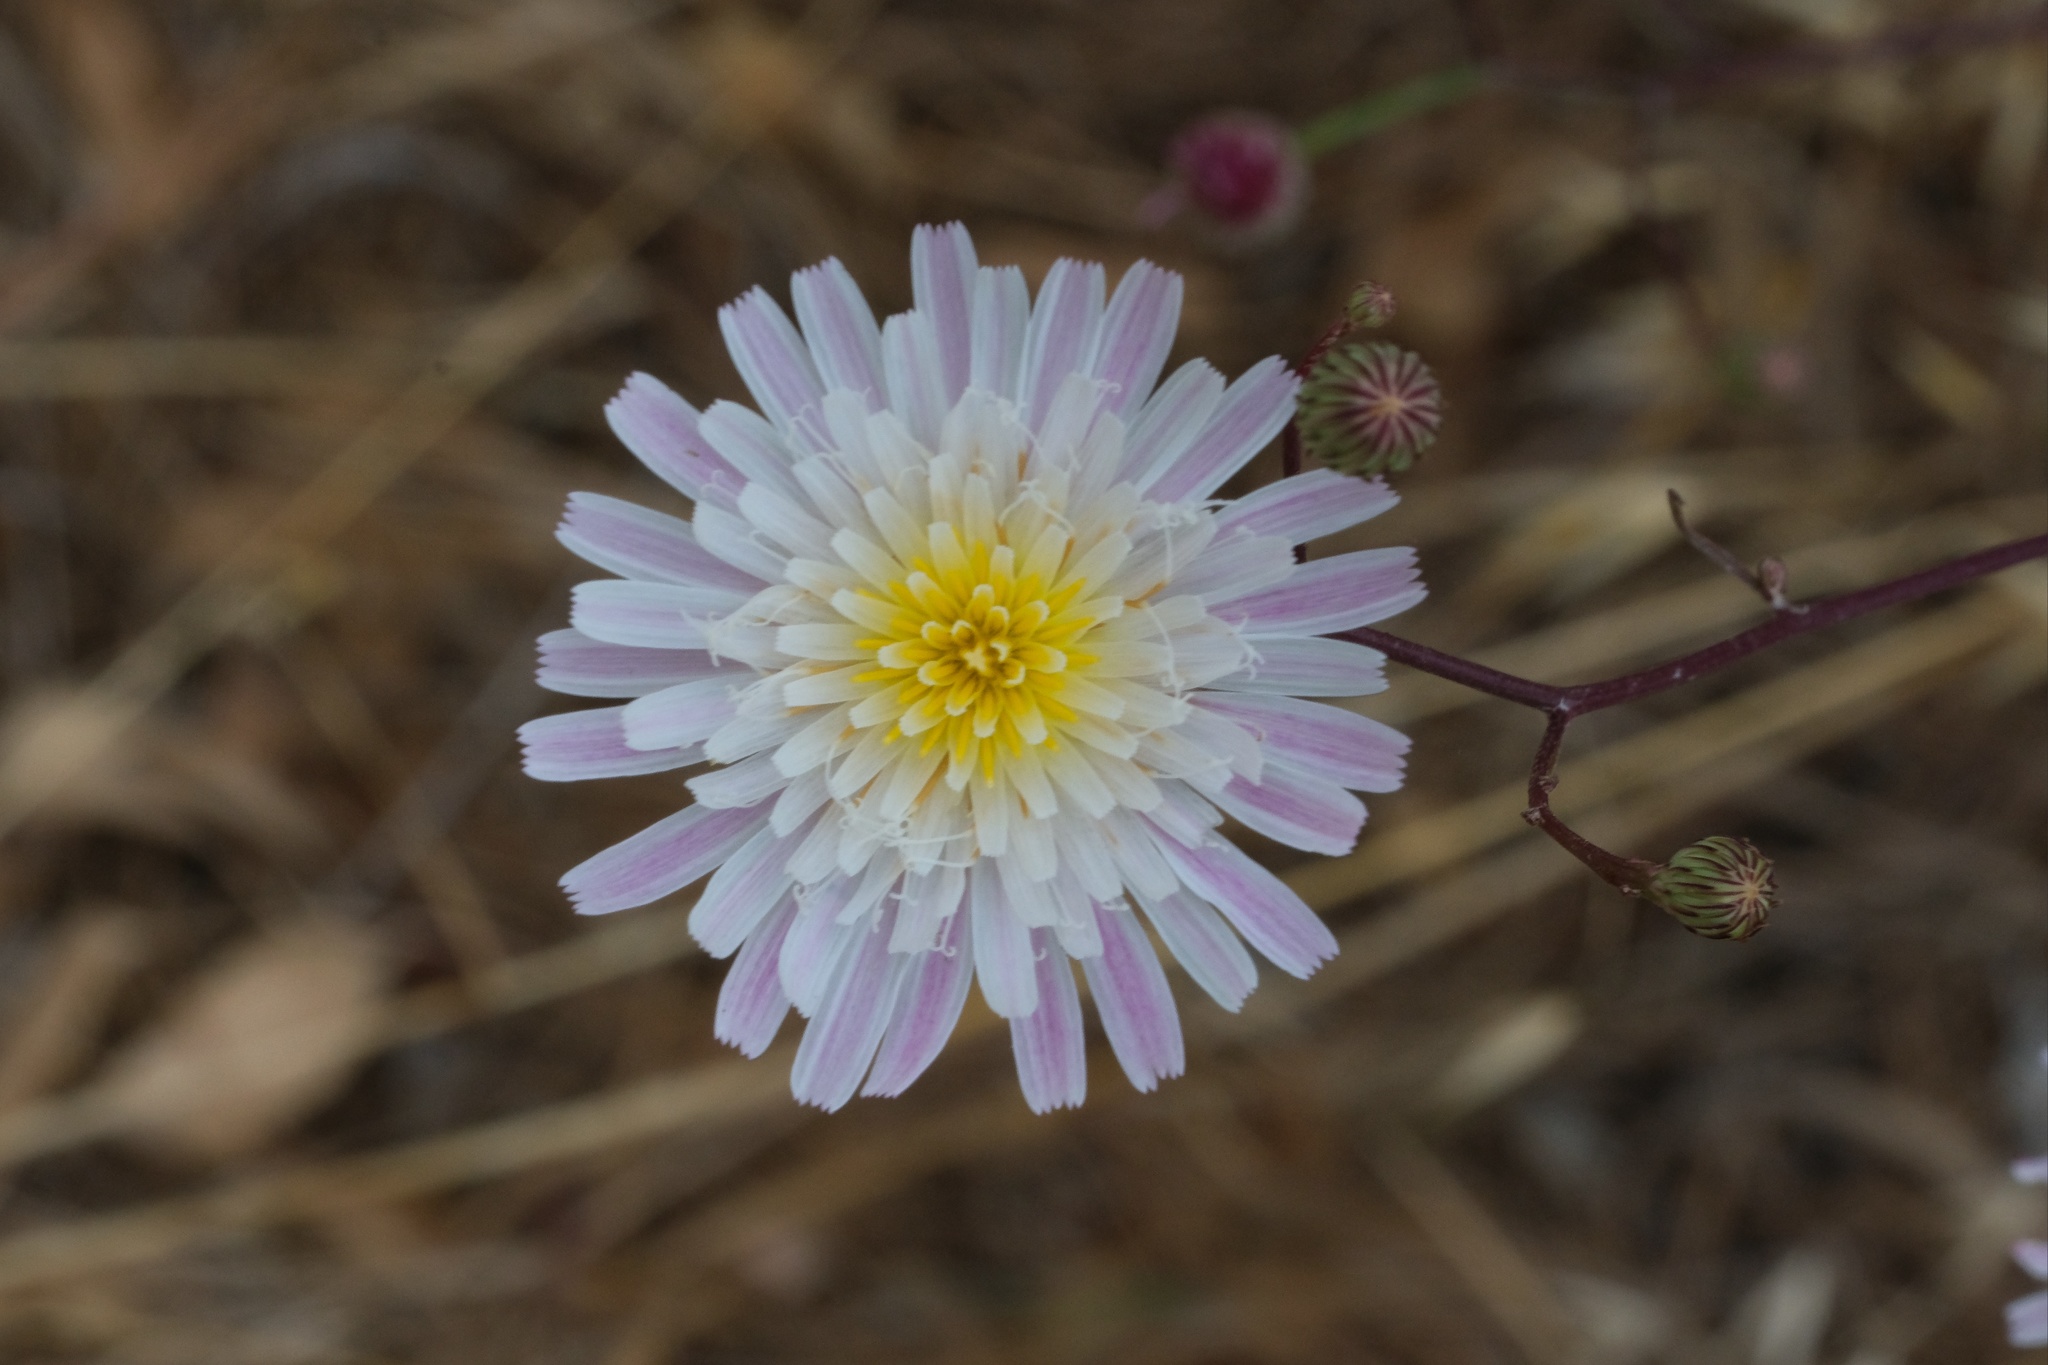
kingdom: Plantae
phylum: Tracheophyta
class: Magnoliopsida
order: Asterales
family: Asteraceae
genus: Malacothrix
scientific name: Malacothrix saxatilis
